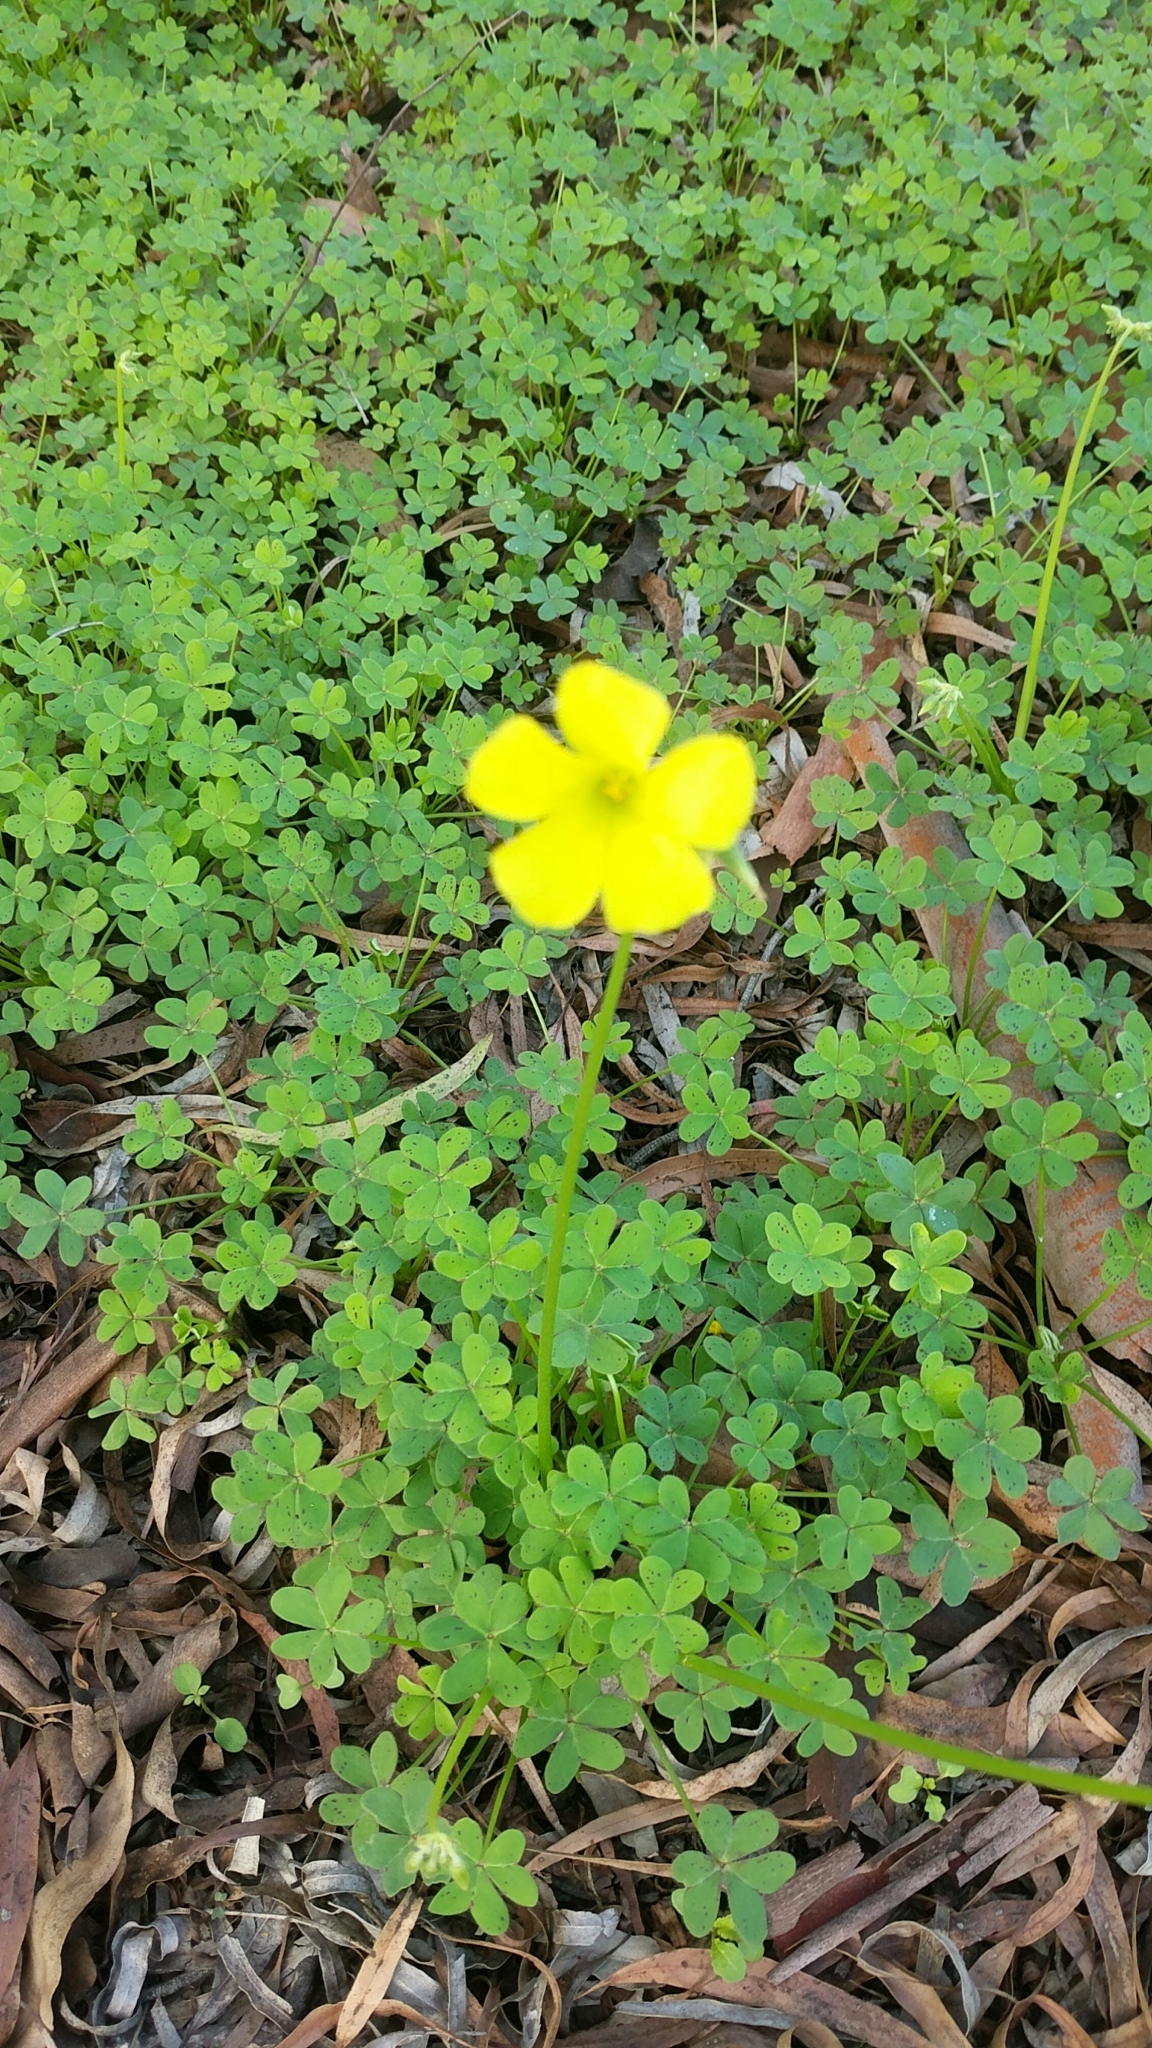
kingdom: Plantae
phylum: Tracheophyta
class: Magnoliopsida
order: Oxalidales
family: Oxalidaceae
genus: Oxalis
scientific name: Oxalis pes-caprae
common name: Bermuda-buttercup
